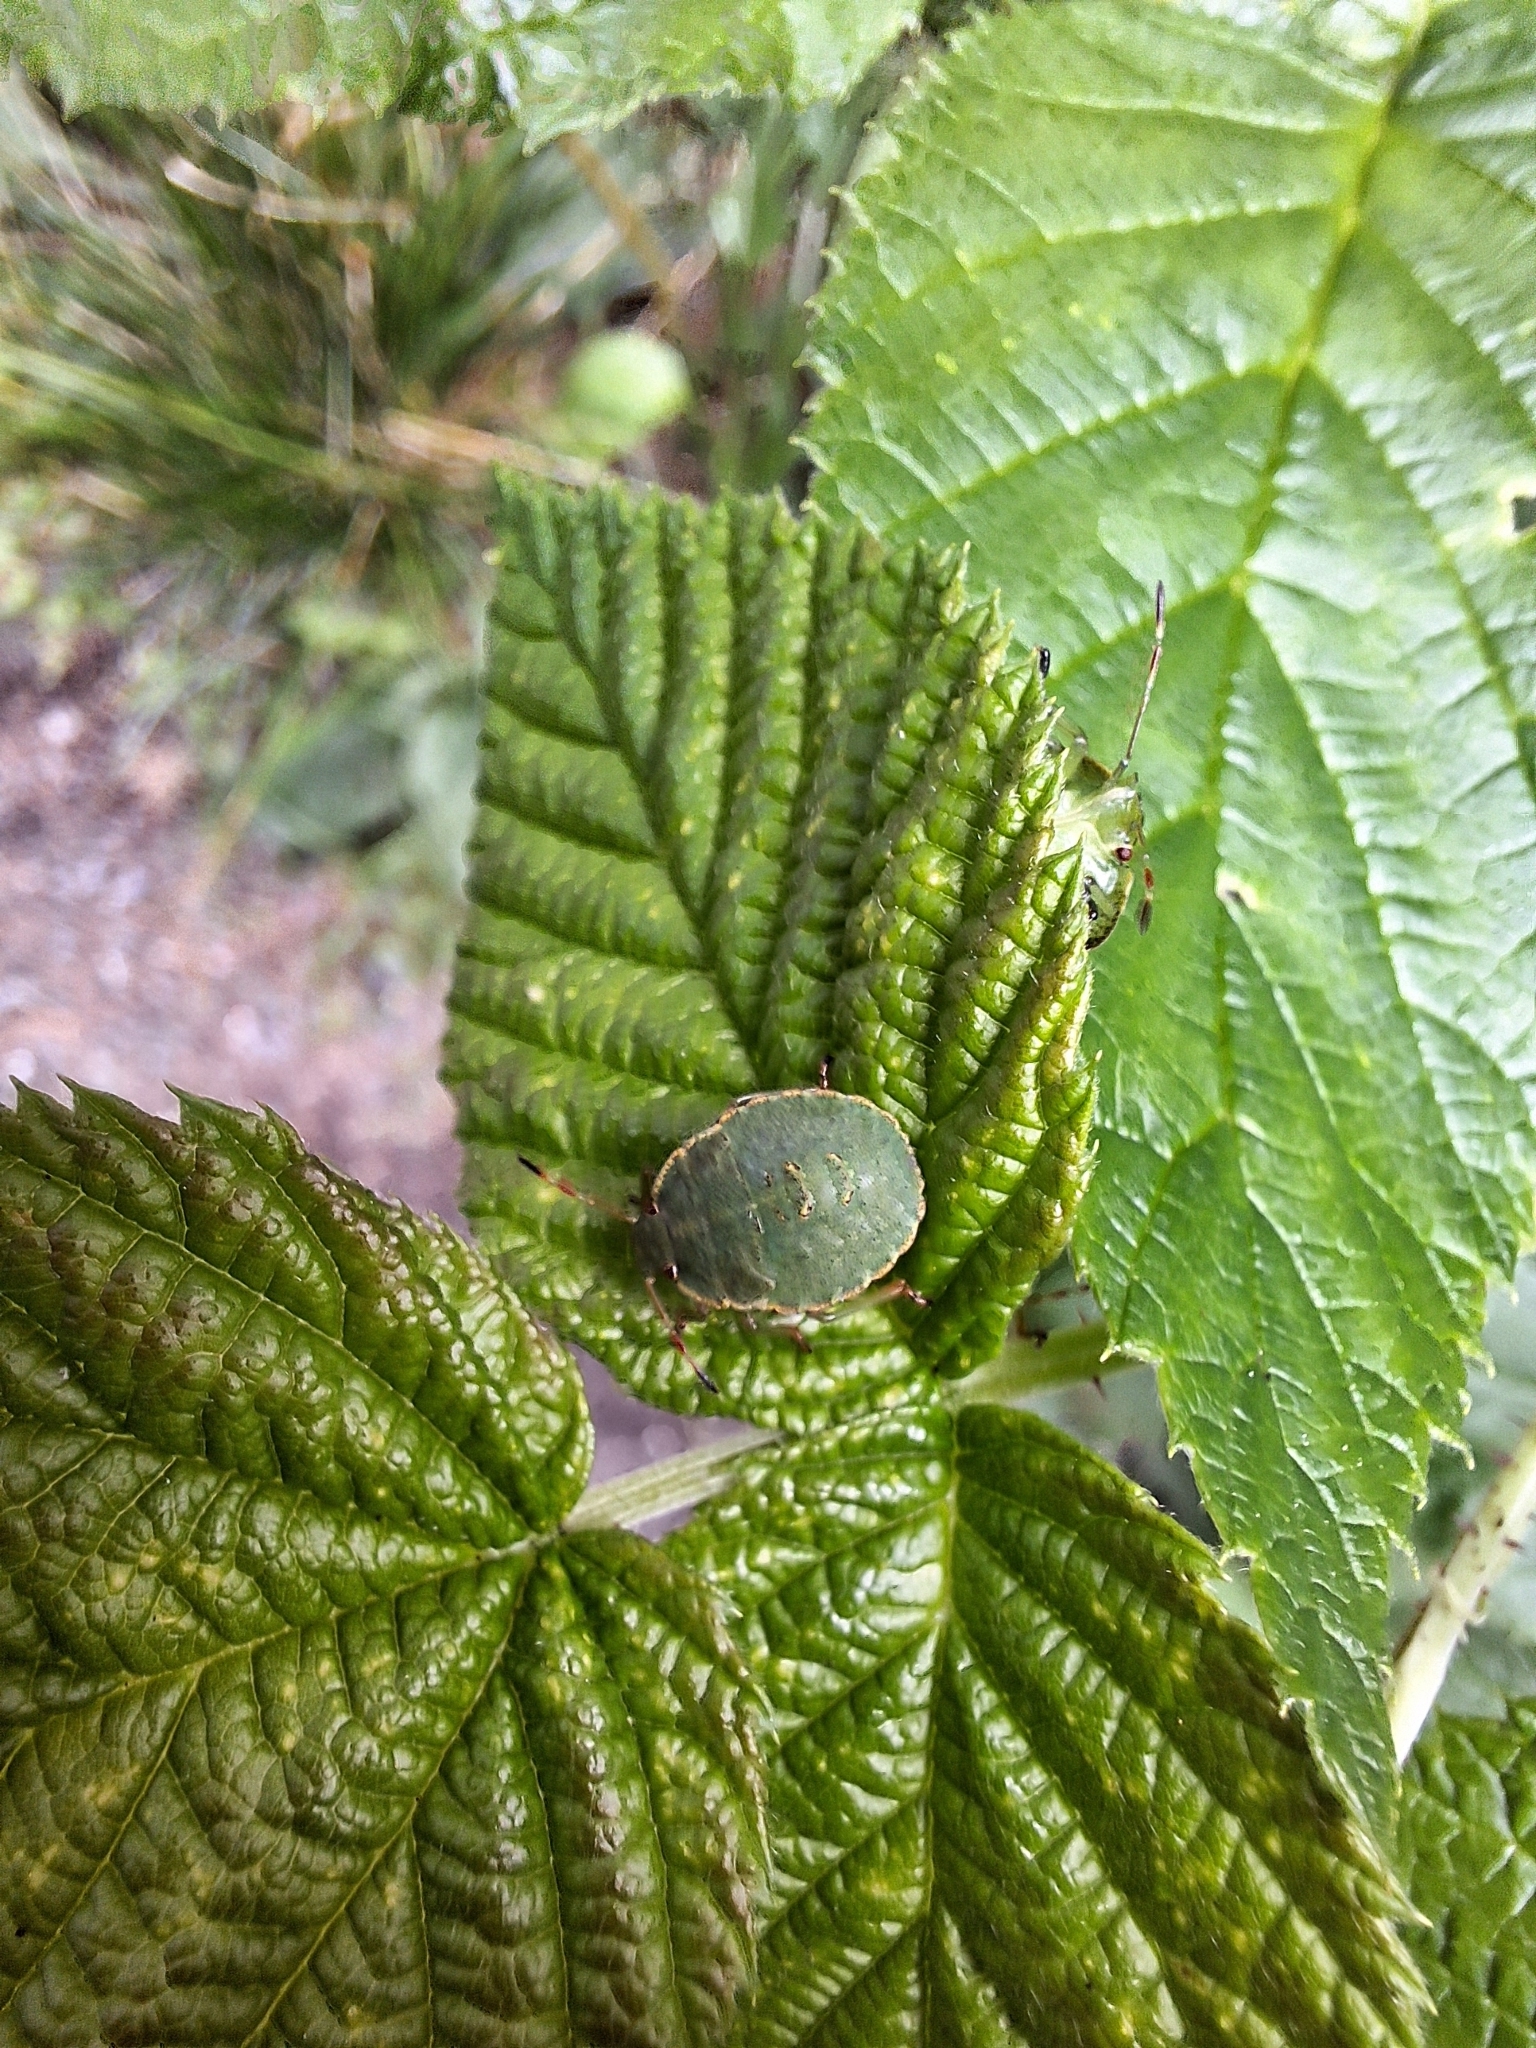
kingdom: Animalia
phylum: Arthropoda
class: Insecta
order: Hemiptera
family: Pentatomidae
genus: Palomena
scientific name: Palomena prasina
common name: Green shieldbug
